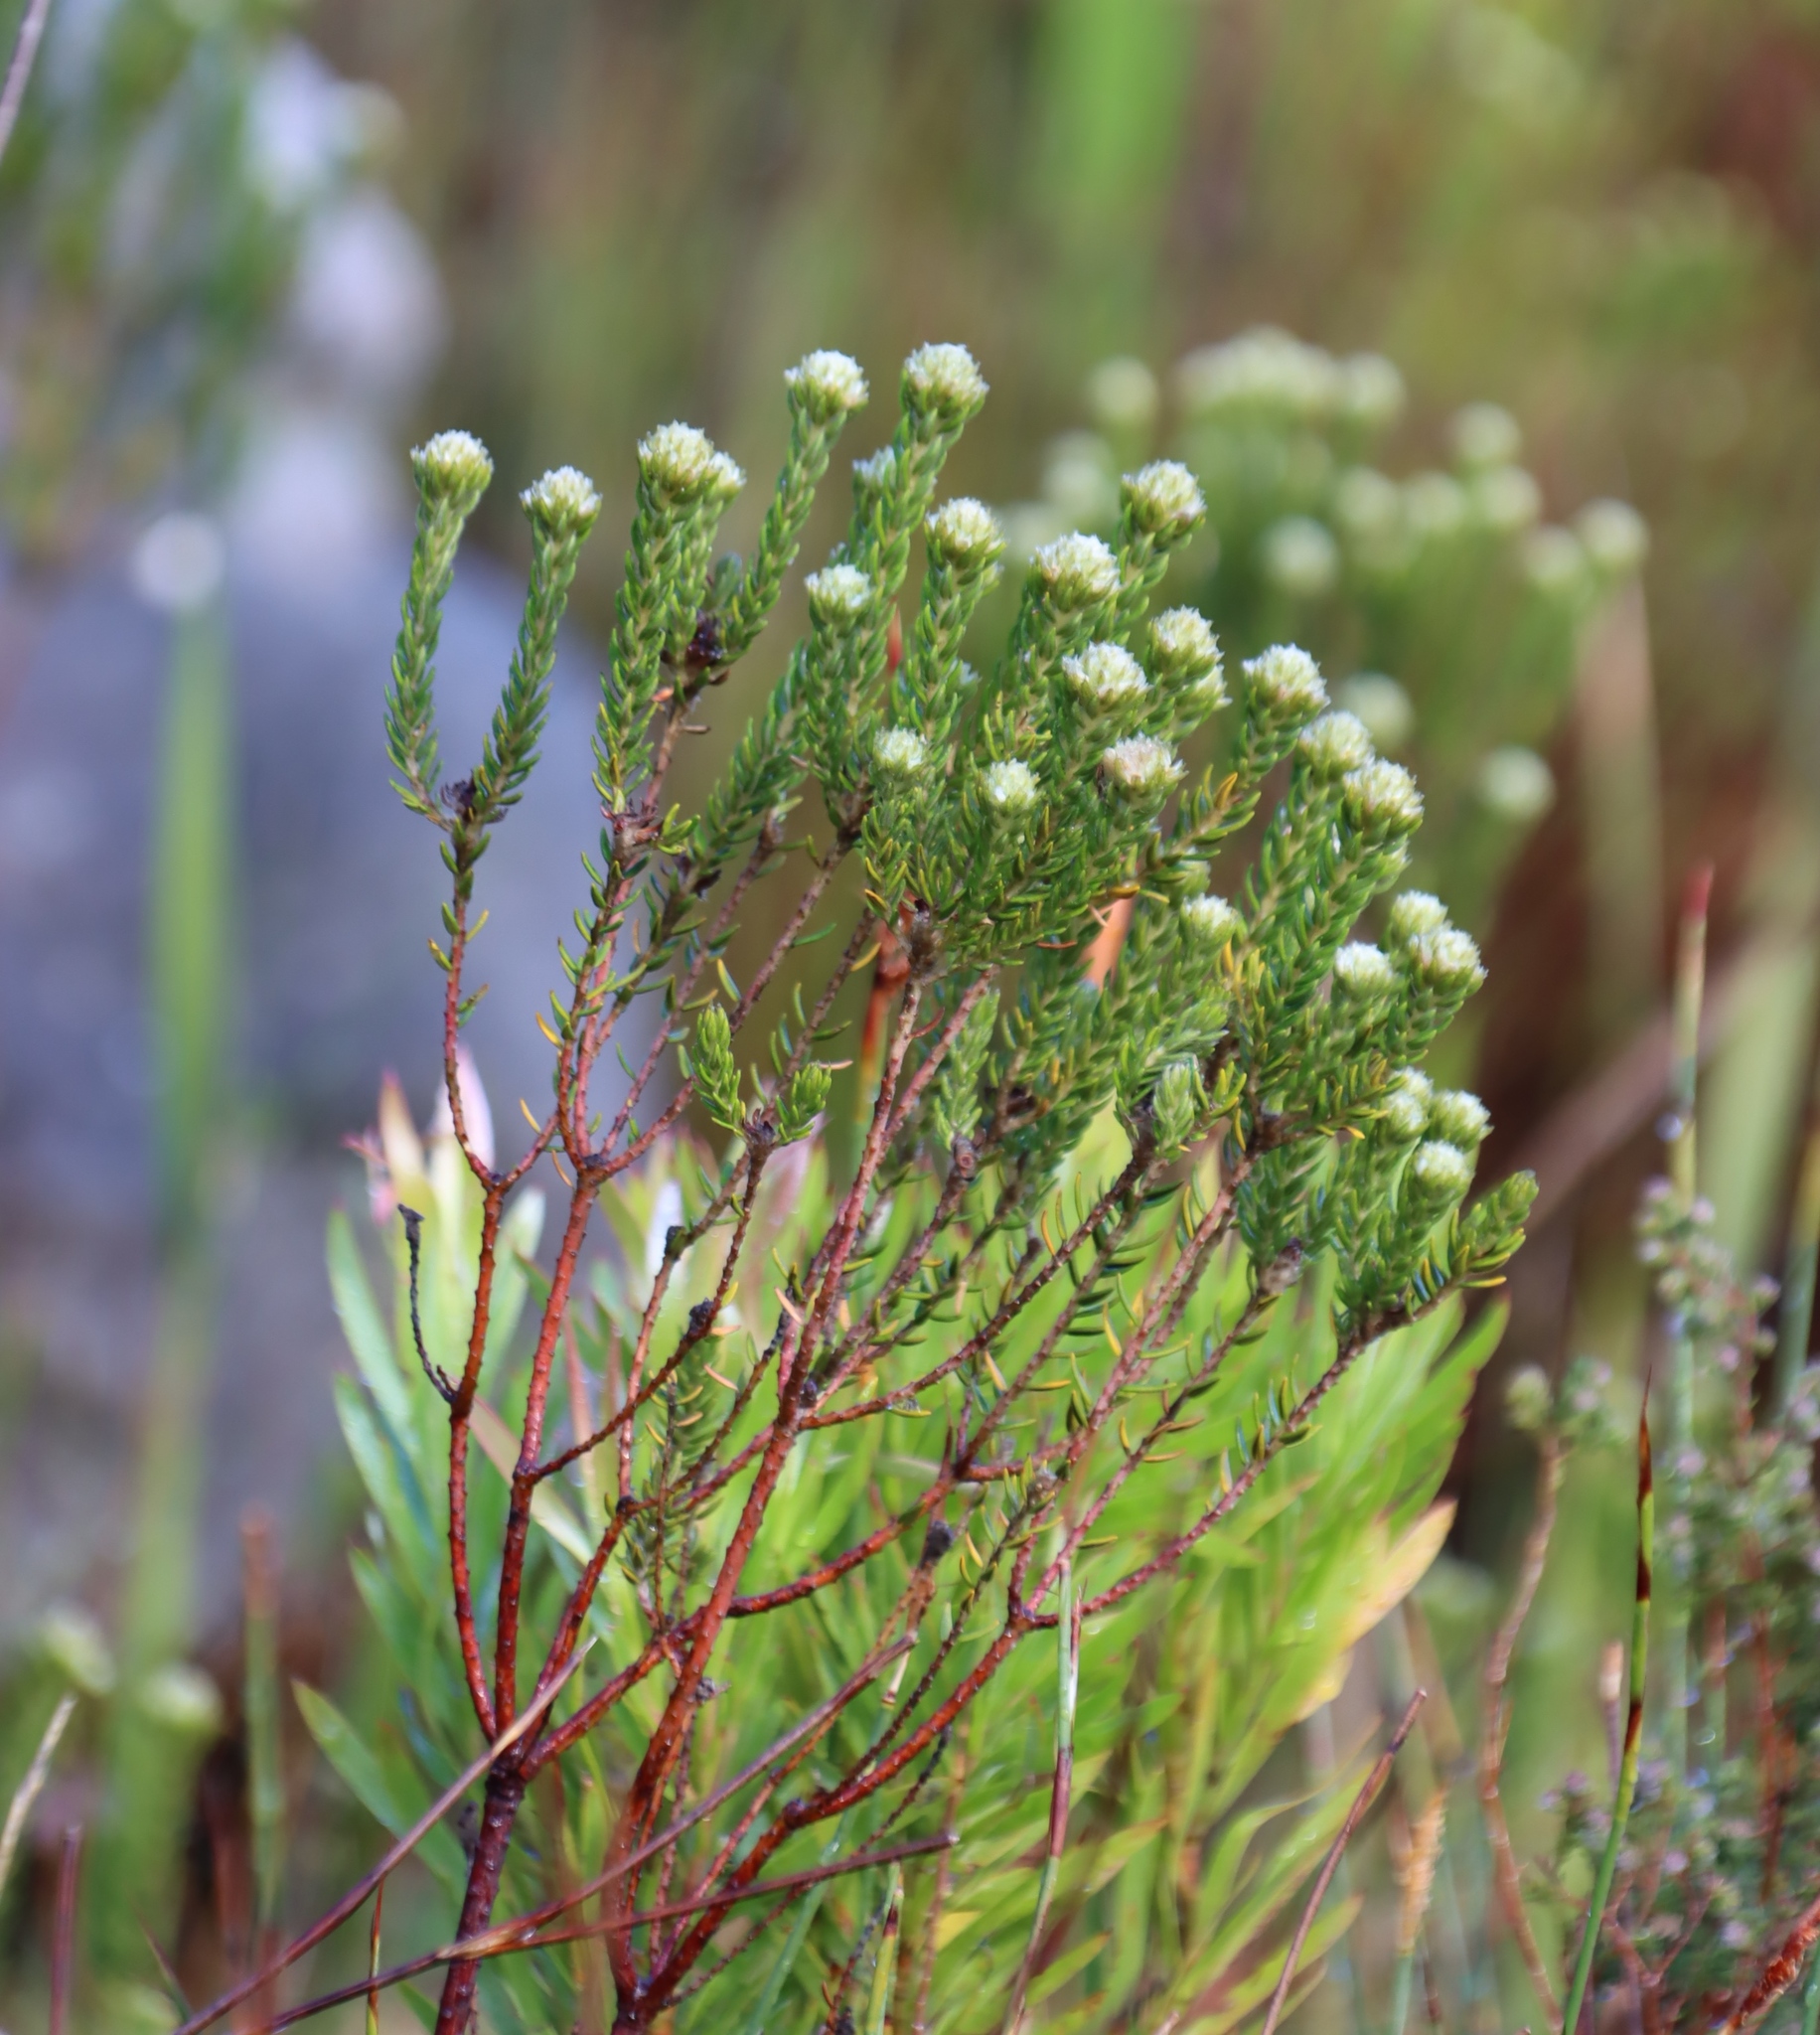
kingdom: Plantae
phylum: Tracheophyta
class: Magnoliopsida
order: Rosales
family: Rhamnaceae
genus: Phylica
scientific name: Phylica strigosa
